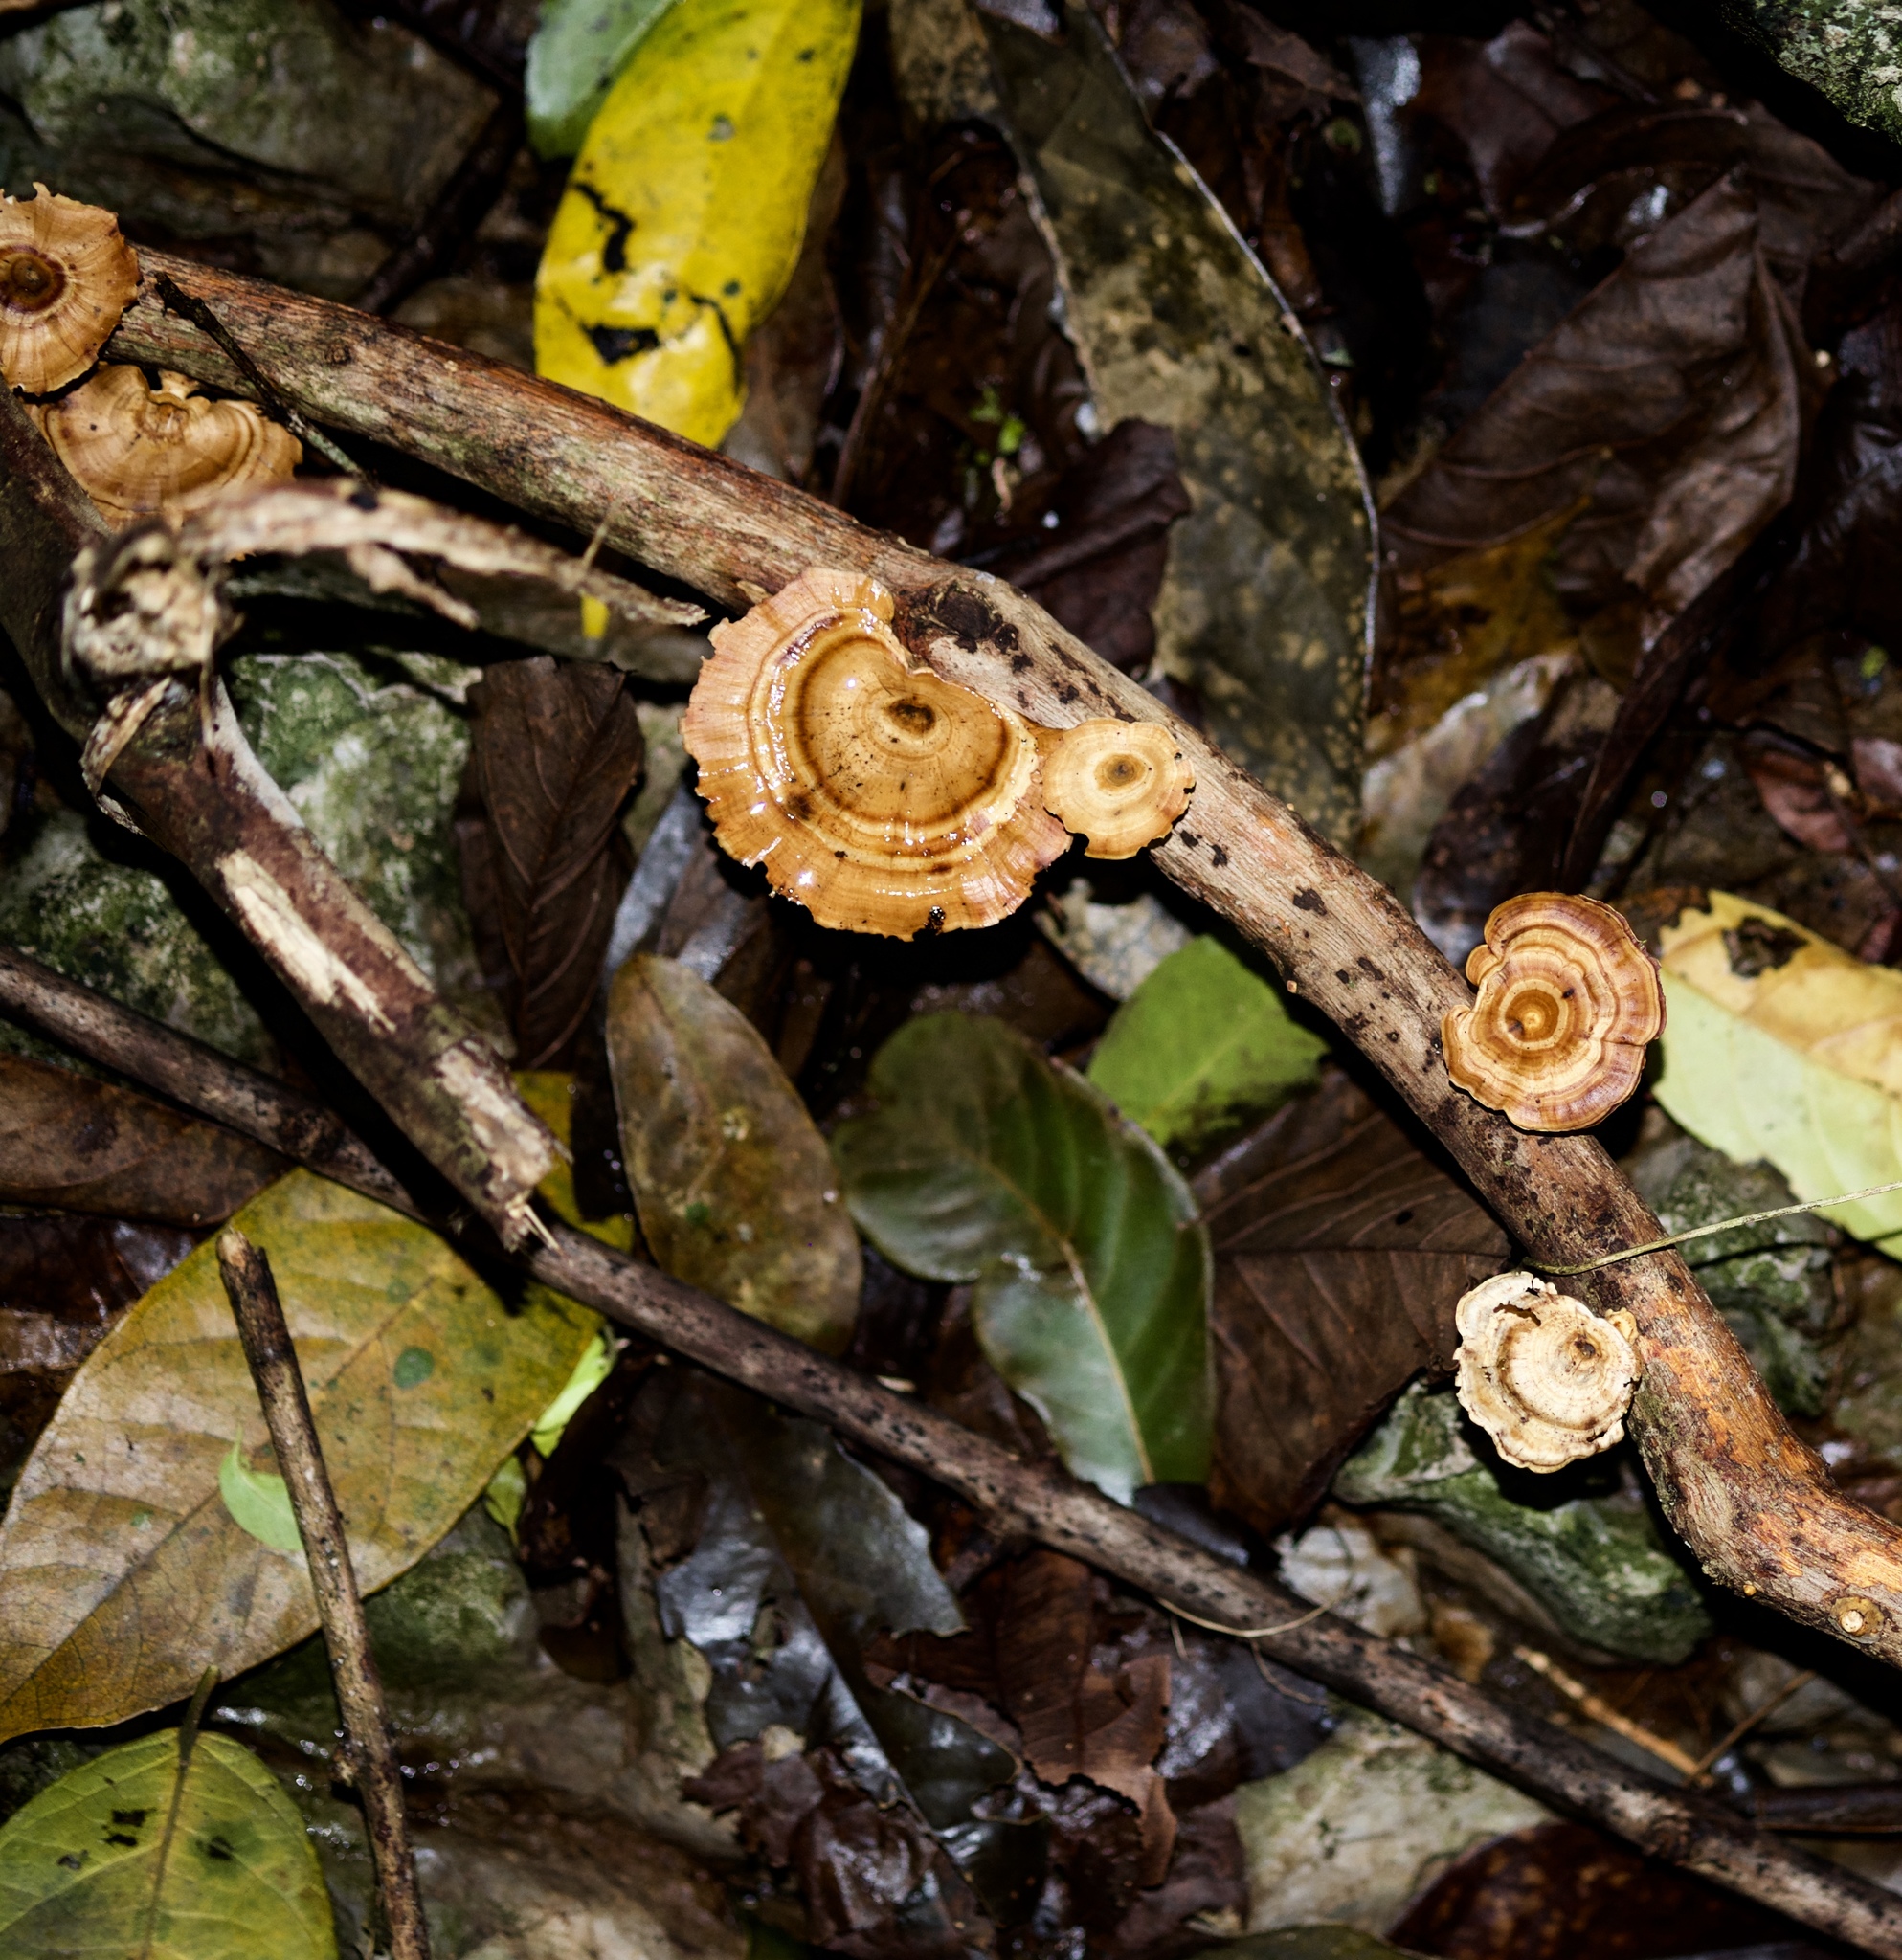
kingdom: Fungi
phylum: Basidiomycota
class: Agaricomycetes
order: Polyporales
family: Polyporaceae
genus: Microporus
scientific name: Microporus xanthopus
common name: Yellow-stemmed micropore
